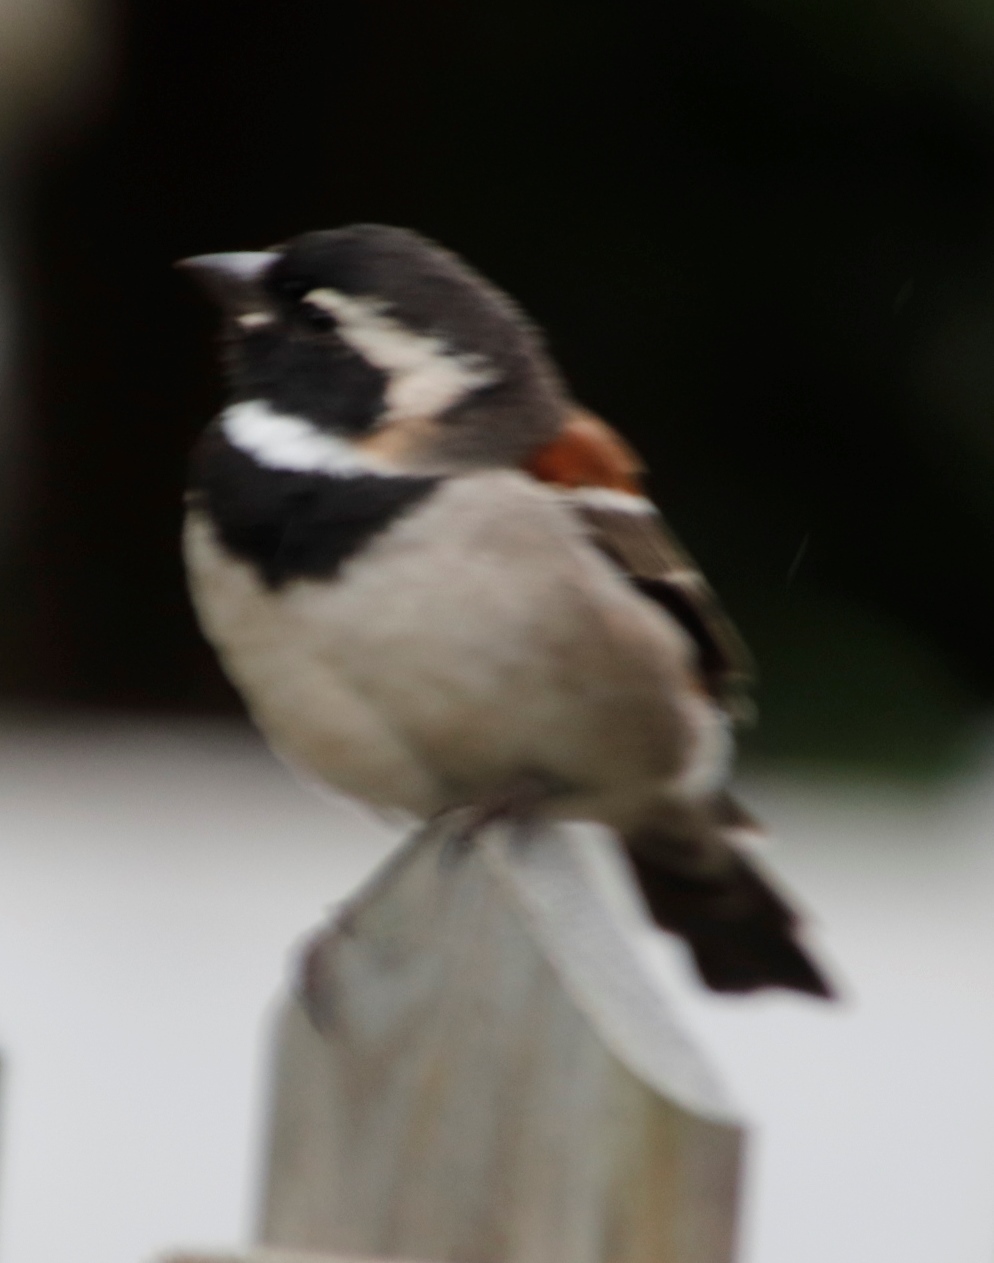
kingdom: Animalia
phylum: Chordata
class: Aves
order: Passeriformes
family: Passeridae
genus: Passer
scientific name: Passer melanurus
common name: Cape sparrow
